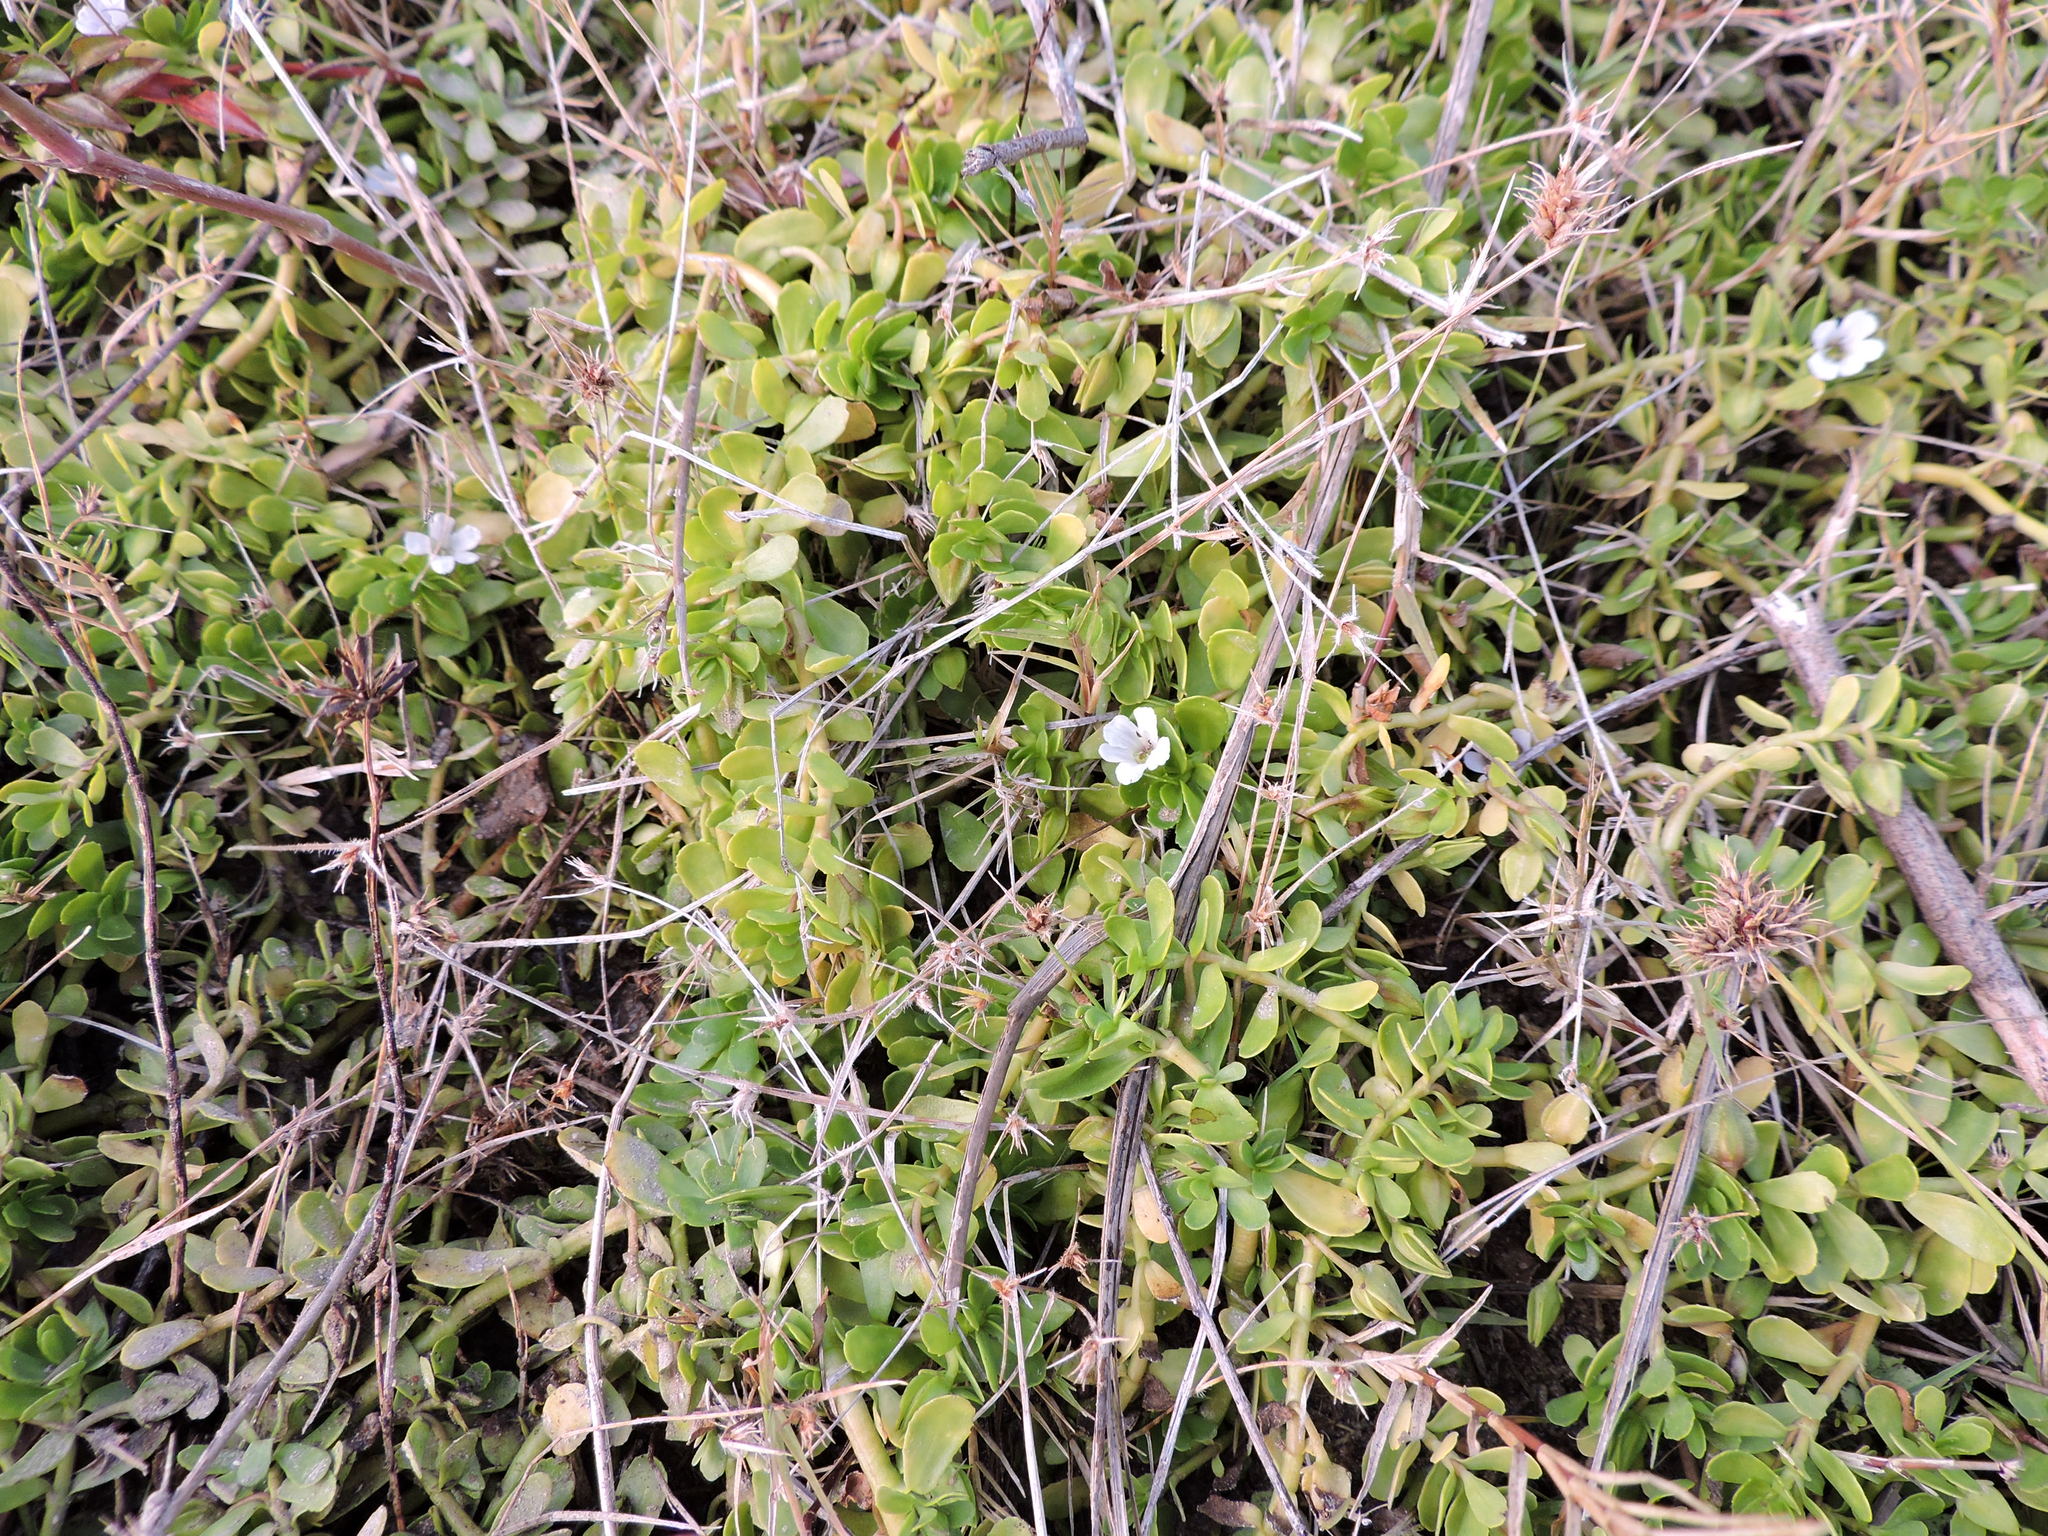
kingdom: Plantae
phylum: Tracheophyta
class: Magnoliopsida
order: Lamiales
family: Plantaginaceae
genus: Bacopa
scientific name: Bacopa monnieri
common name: Indian-pennywort
